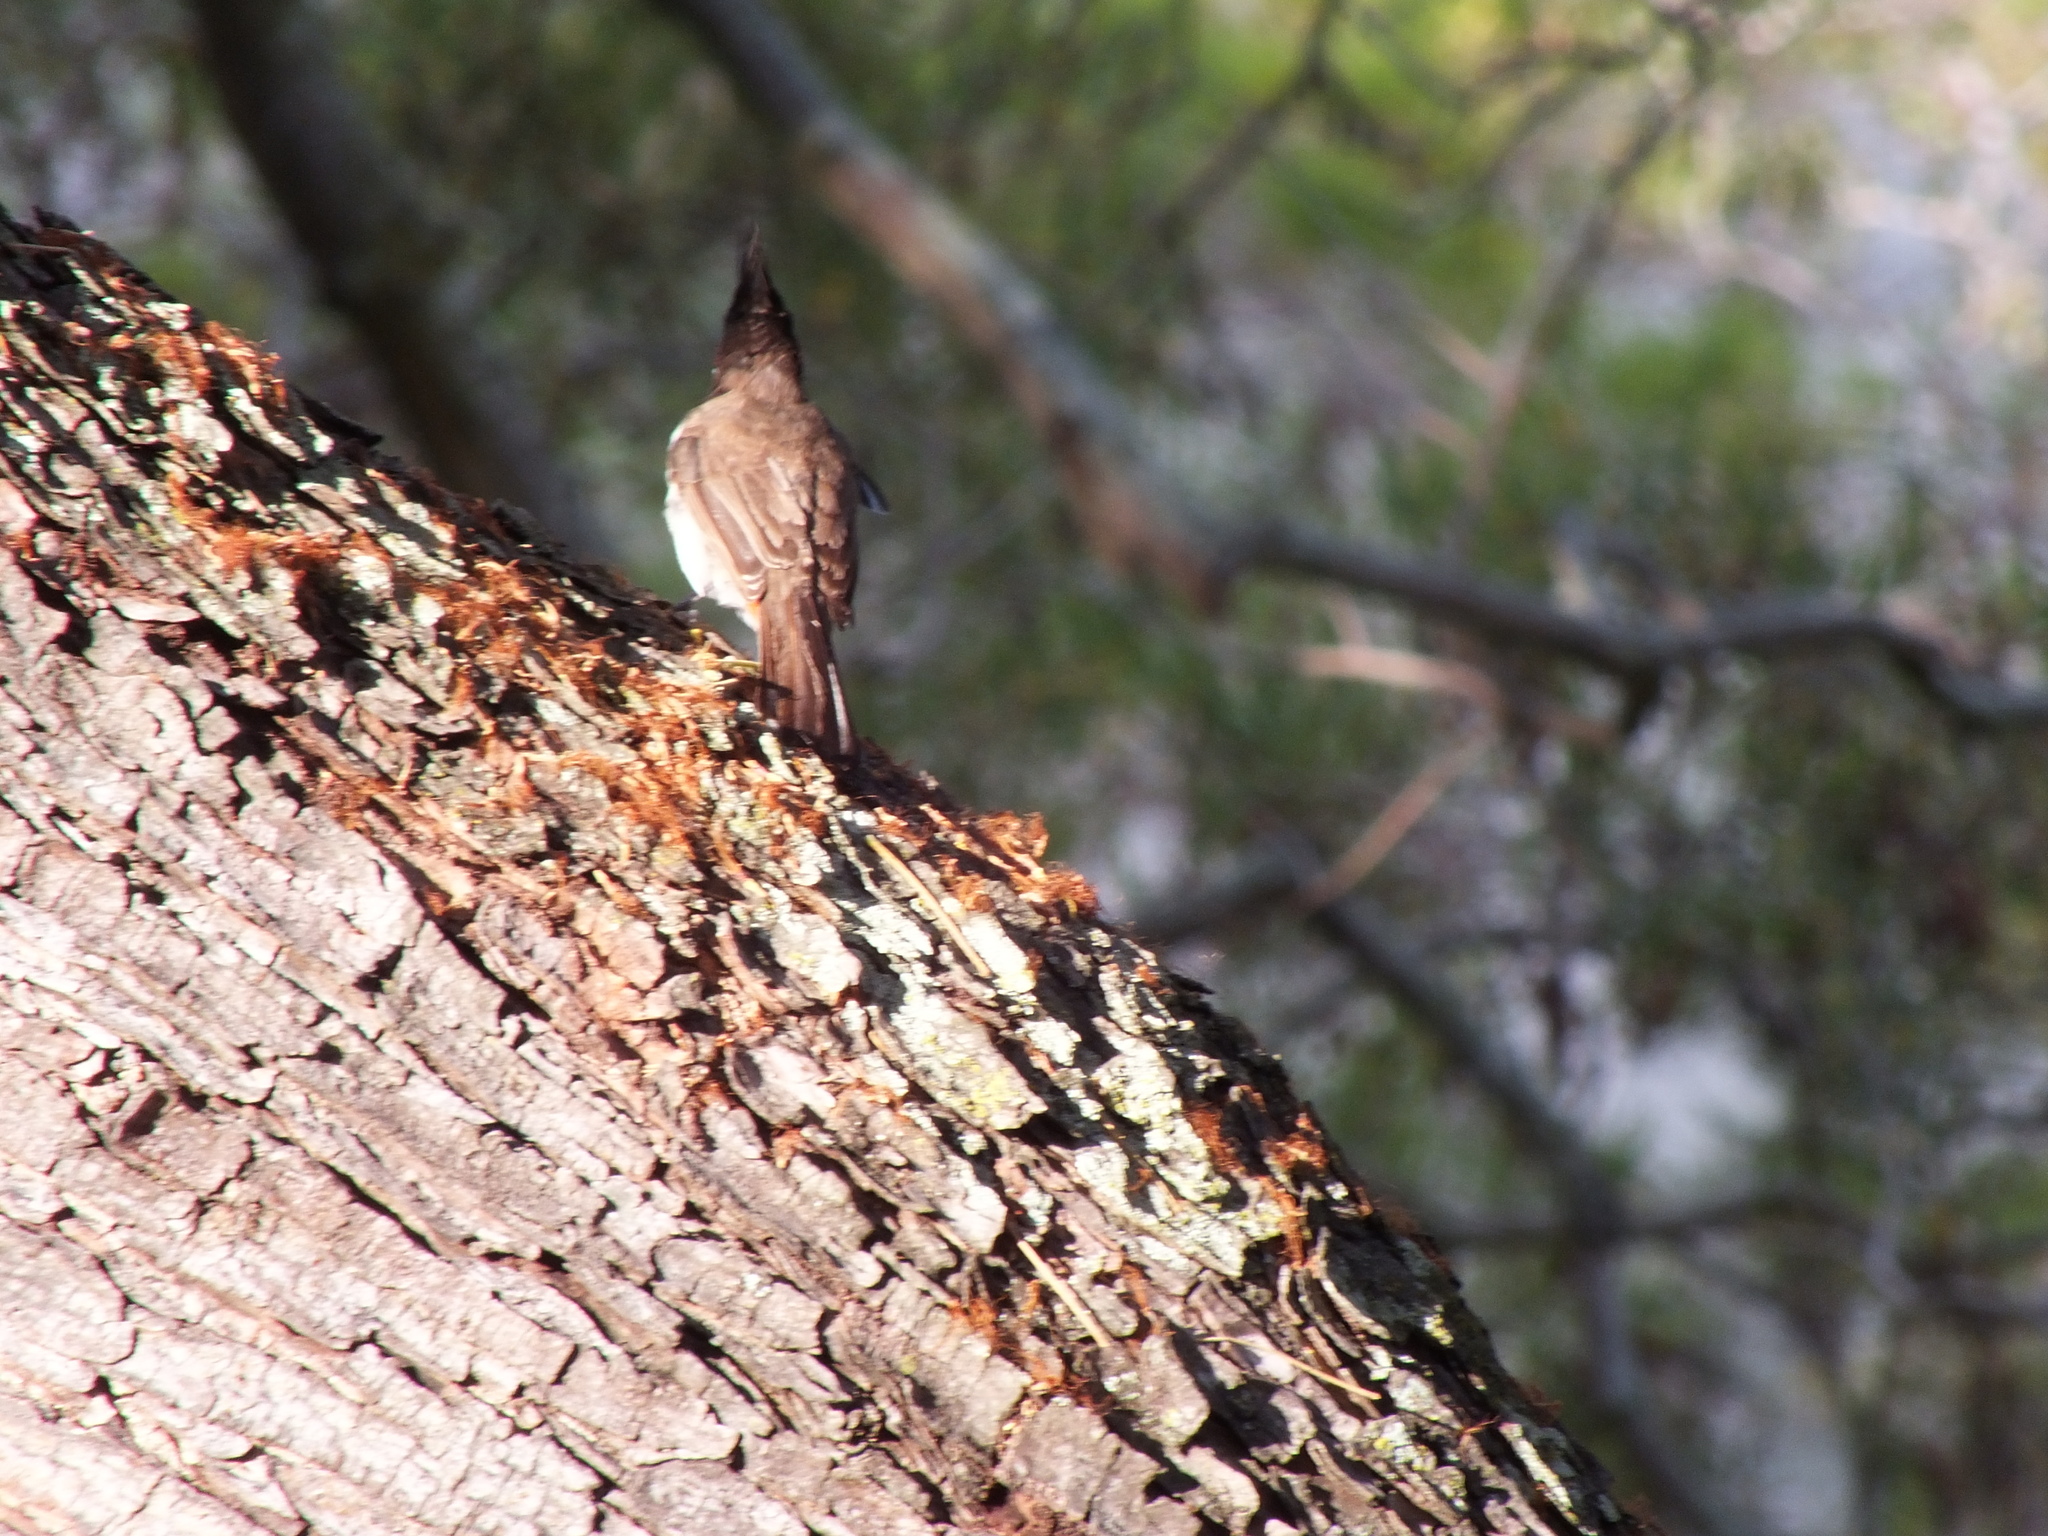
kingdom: Animalia
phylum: Chordata
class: Aves
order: Passeriformes
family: Pycnonotidae
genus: Pycnonotus
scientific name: Pycnonotus jocosus
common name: Red-whiskered bulbul
